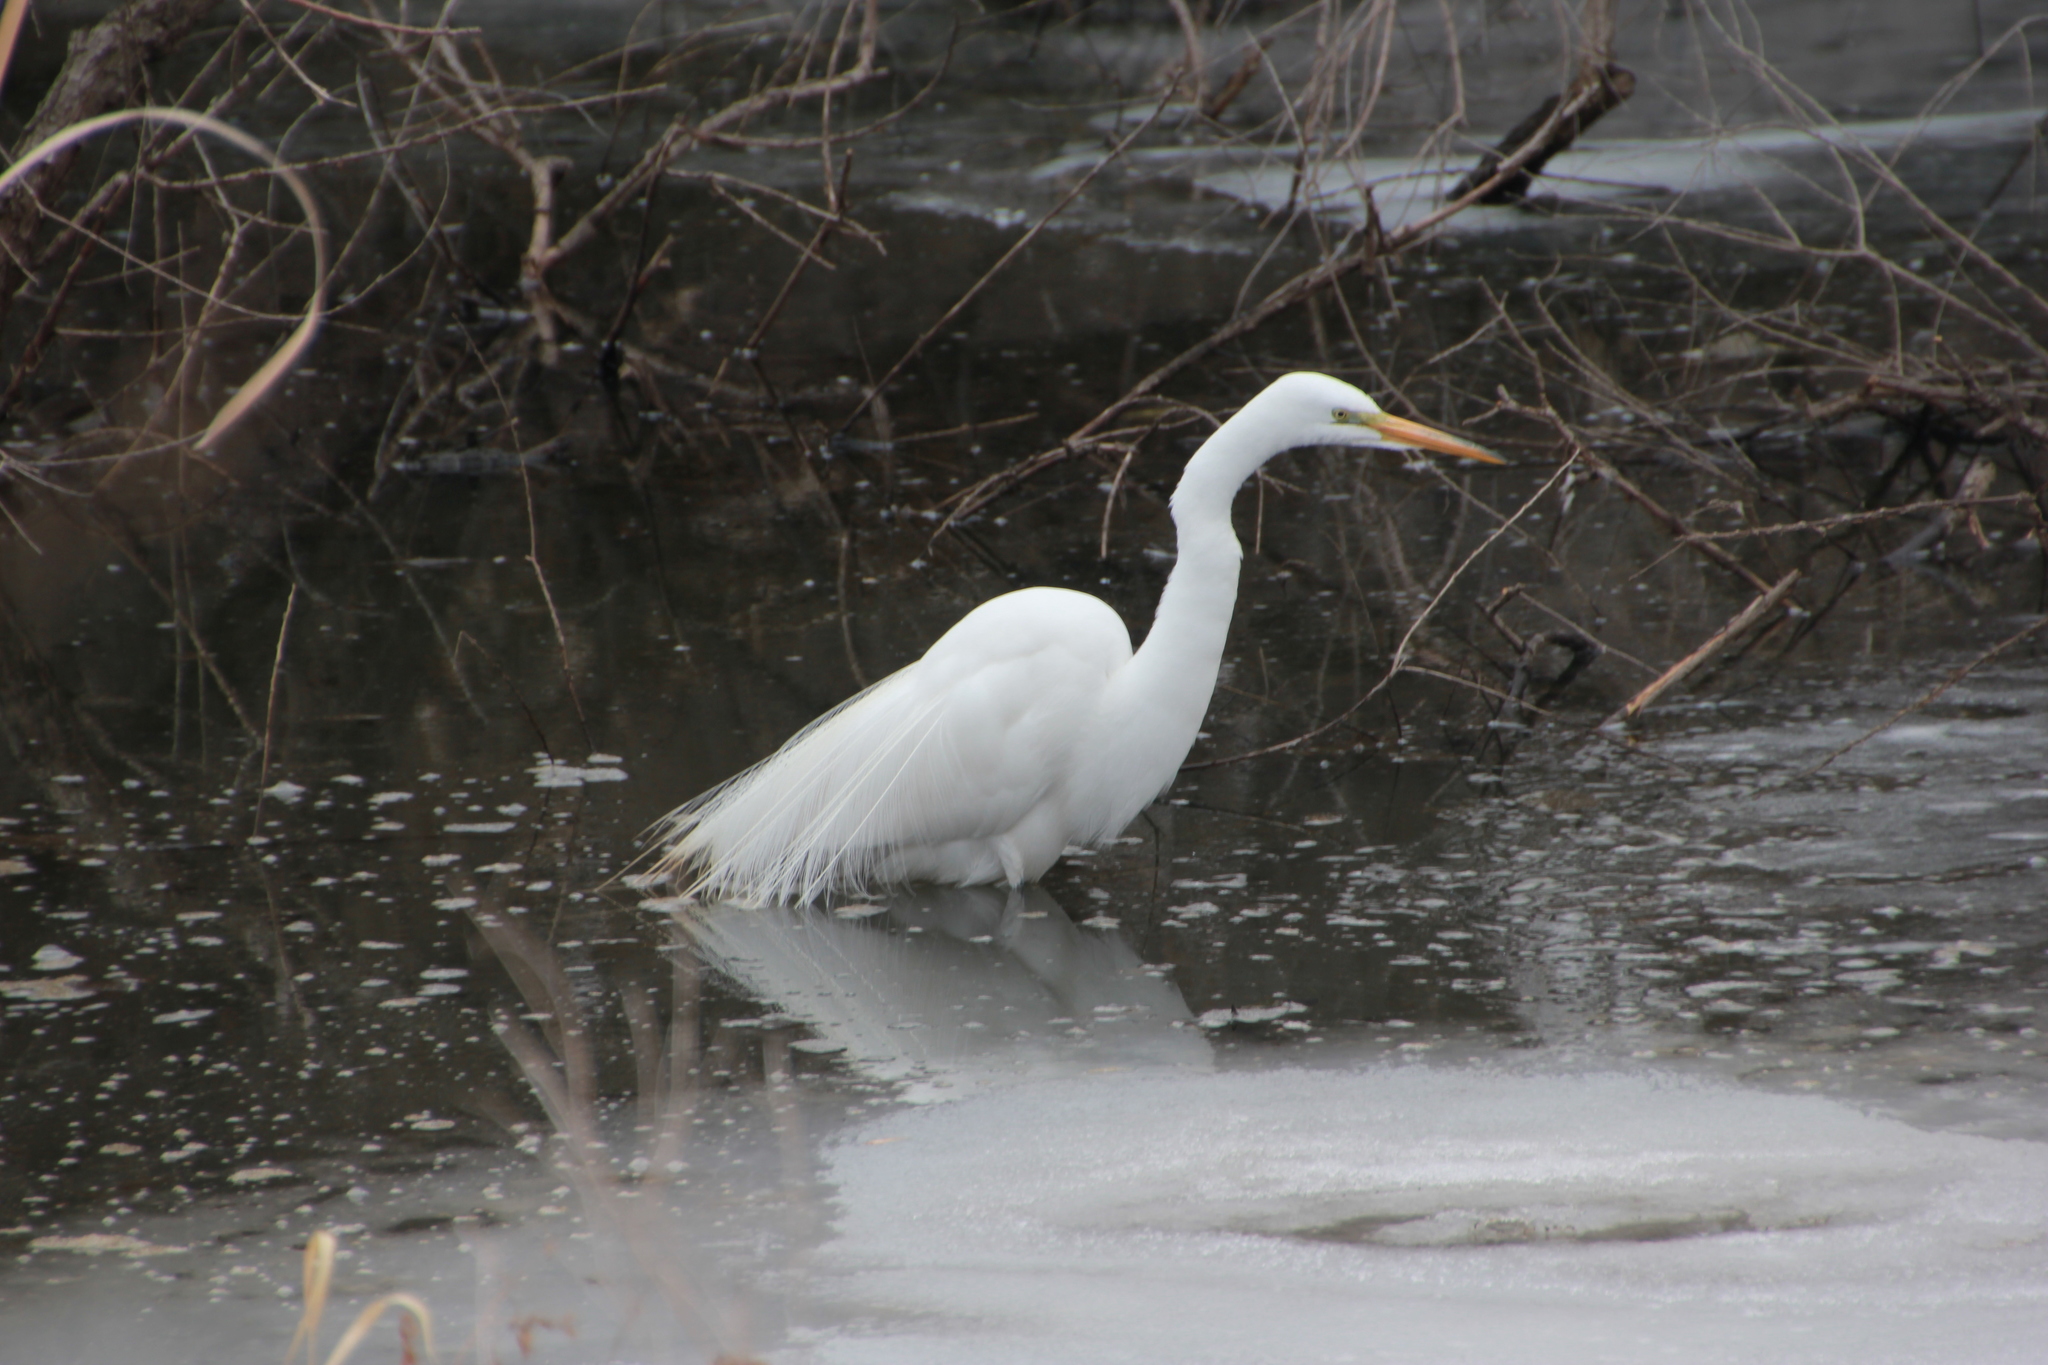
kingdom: Animalia
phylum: Chordata
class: Aves
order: Pelecaniformes
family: Ardeidae
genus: Ardea
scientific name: Ardea alba
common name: Great egret
